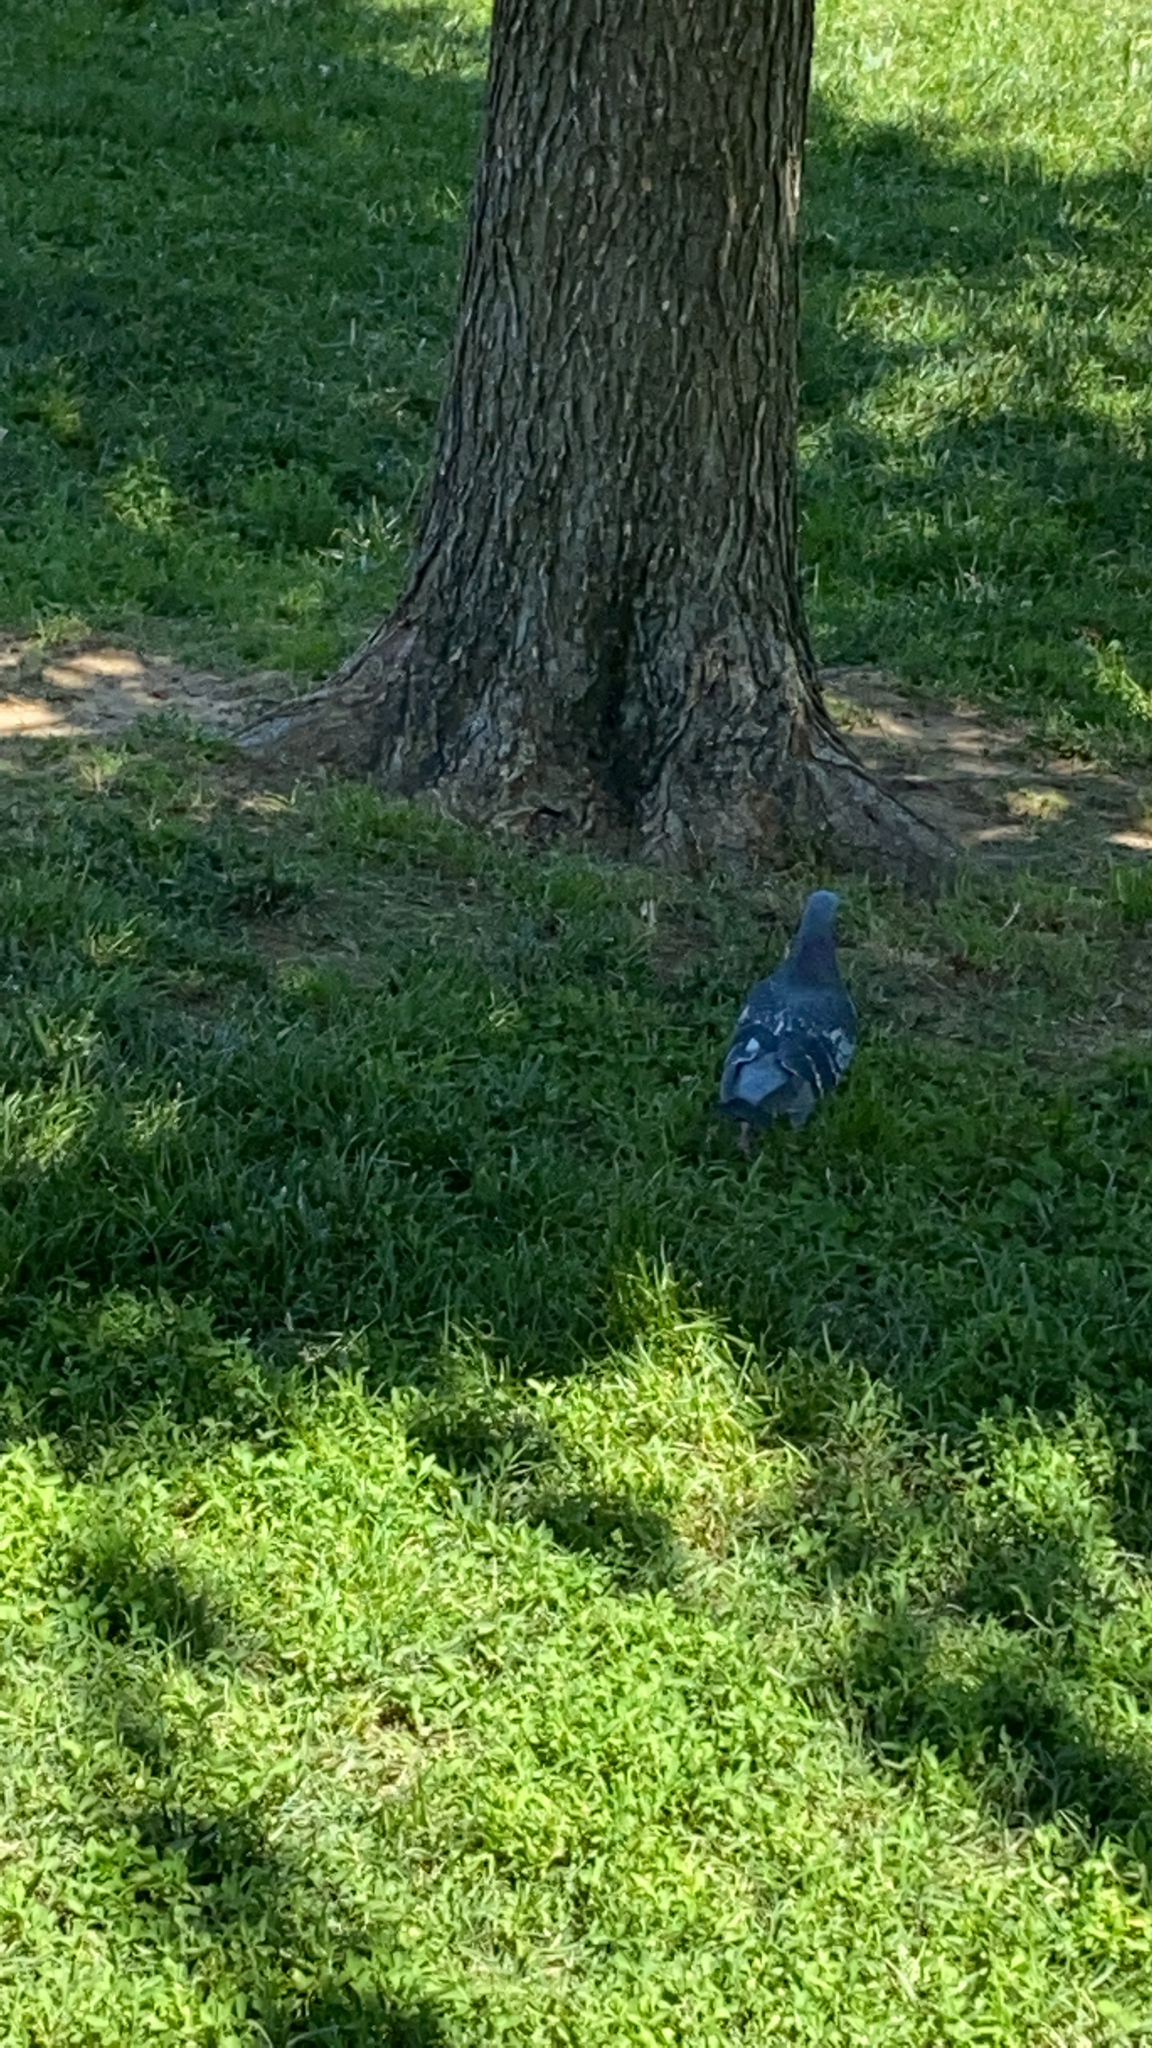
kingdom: Animalia
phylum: Chordata
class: Aves
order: Columbiformes
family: Columbidae
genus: Columba
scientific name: Columba livia
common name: Rock pigeon
